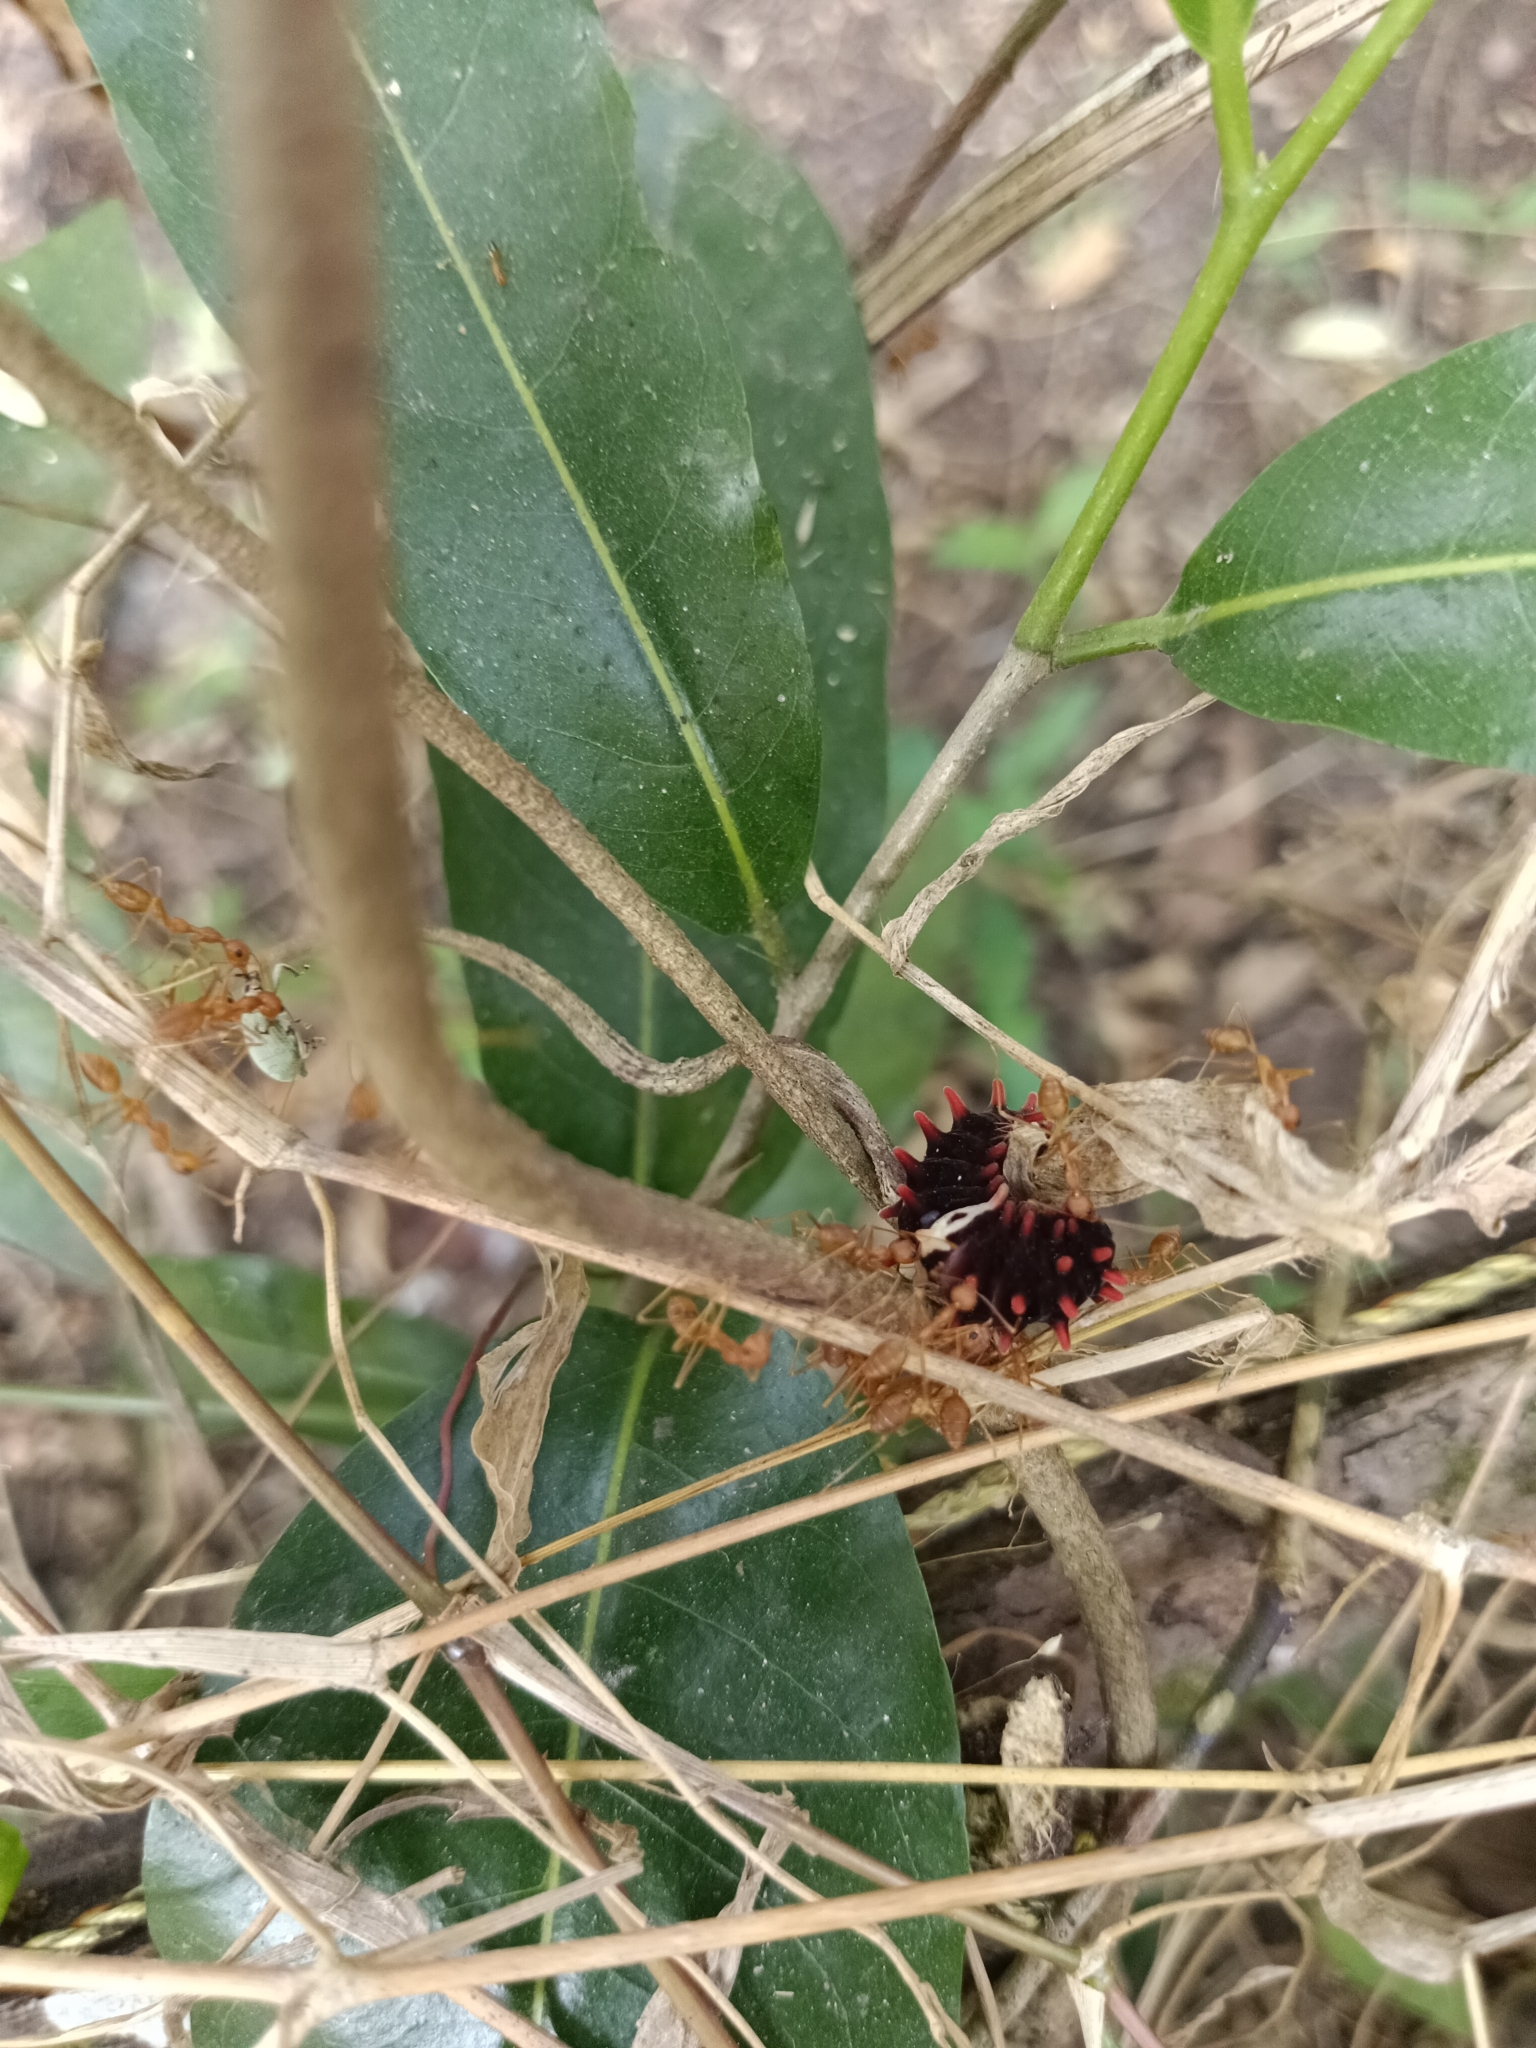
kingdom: Animalia
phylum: Arthropoda
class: Insecta
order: Lepidoptera
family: Papilionidae
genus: Pachliopta
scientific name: Pachliopta aristolochiae
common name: Common rose
